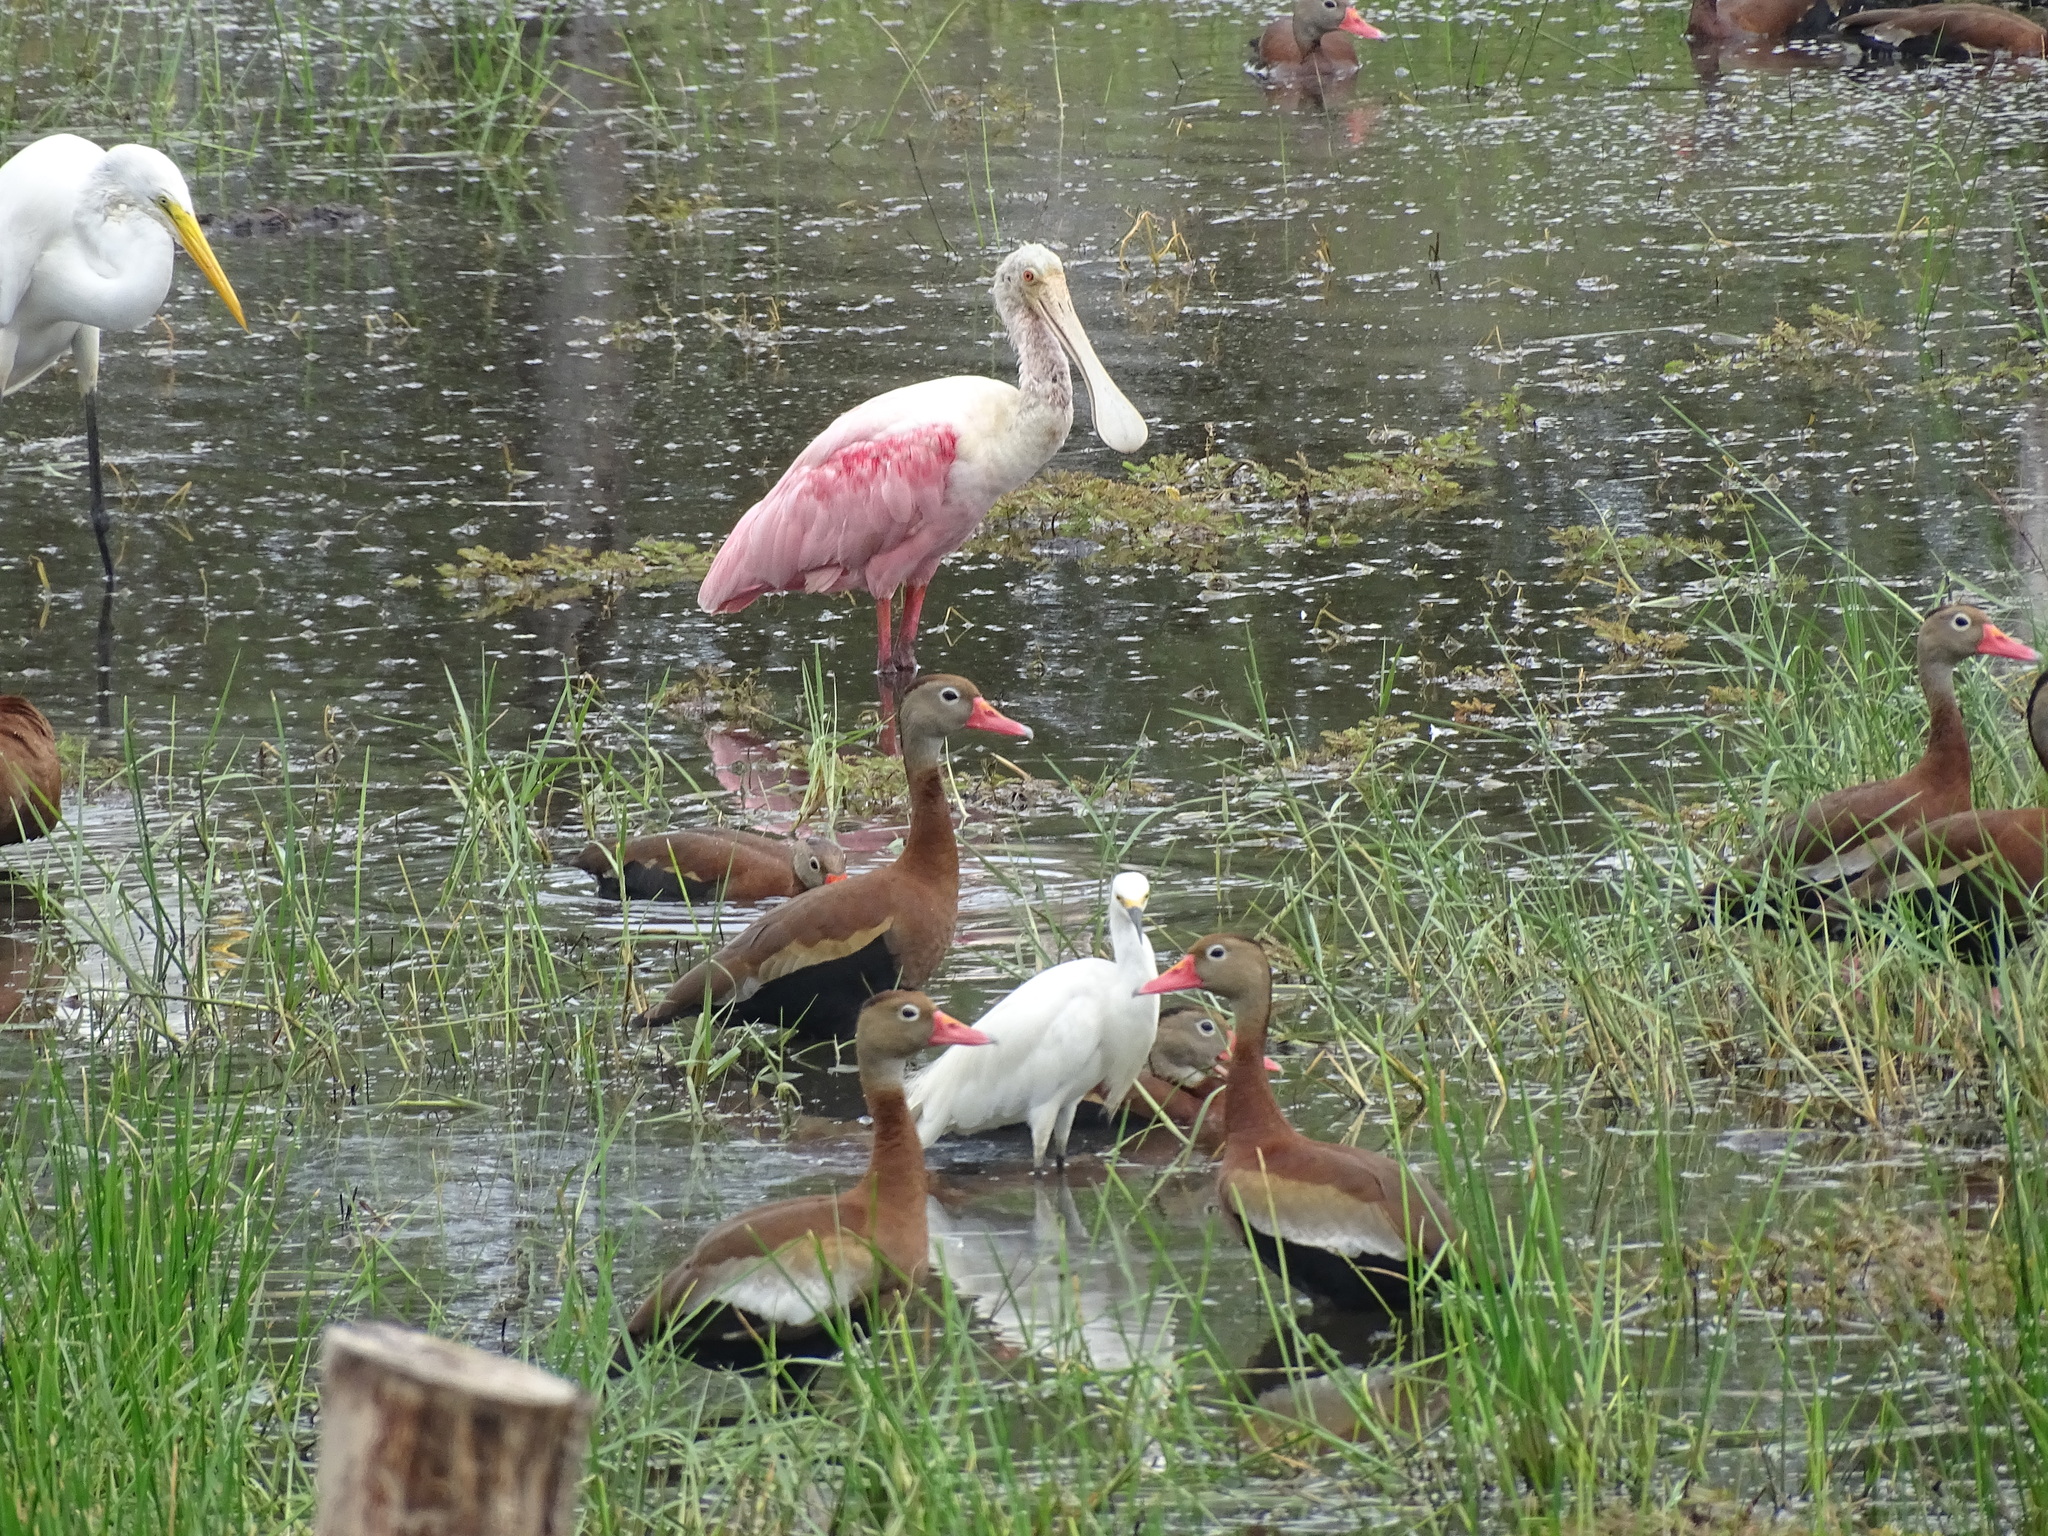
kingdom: Animalia
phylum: Chordata
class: Aves
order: Pelecaniformes
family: Threskiornithidae
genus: Platalea
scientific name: Platalea ajaja
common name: Roseate spoonbill
